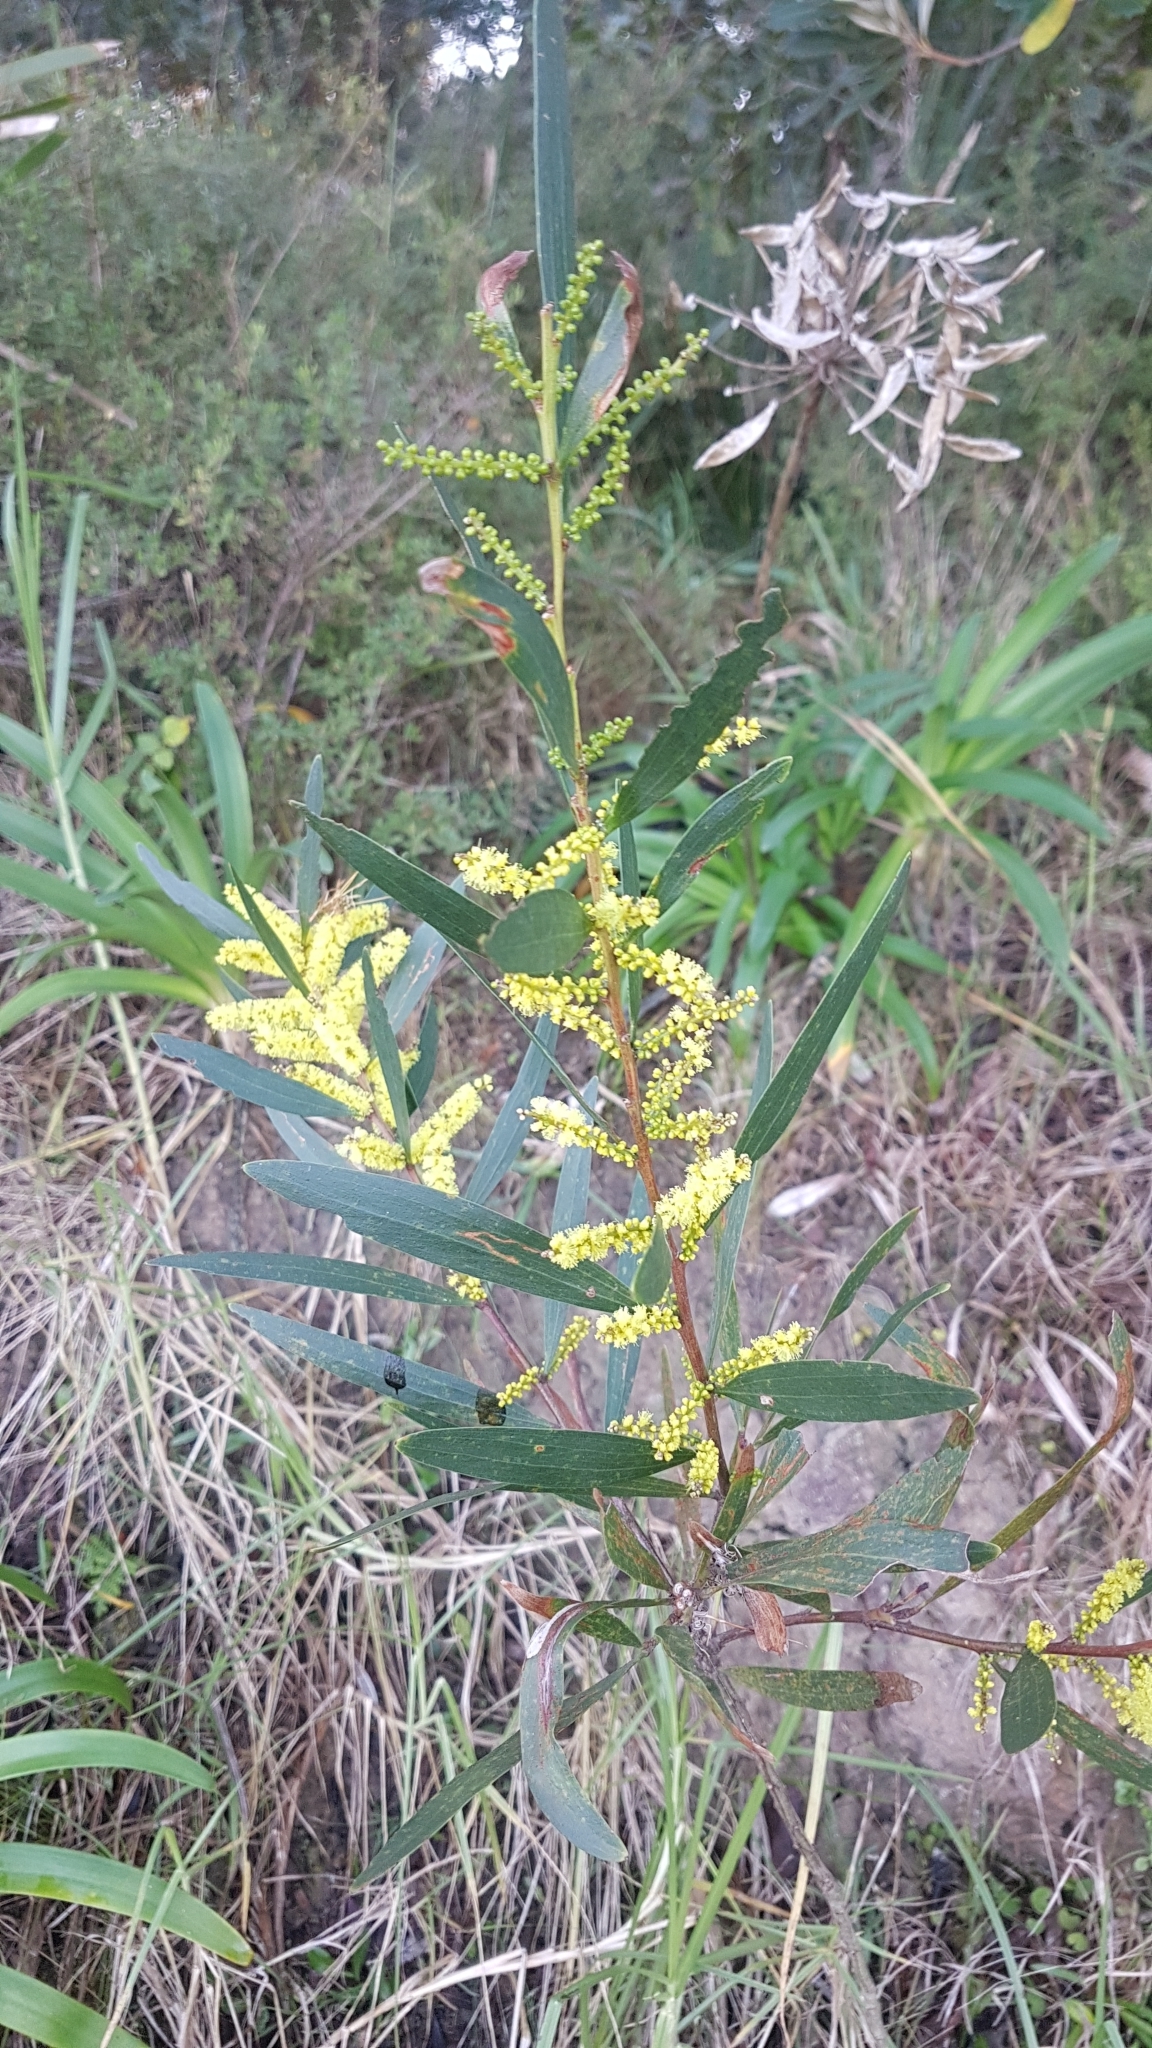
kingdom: Plantae
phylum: Tracheophyta
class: Magnoliopsida
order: Fabales
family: Fabaceae
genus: Acacia
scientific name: Acacia longifolia
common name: Sydney golden wattle
